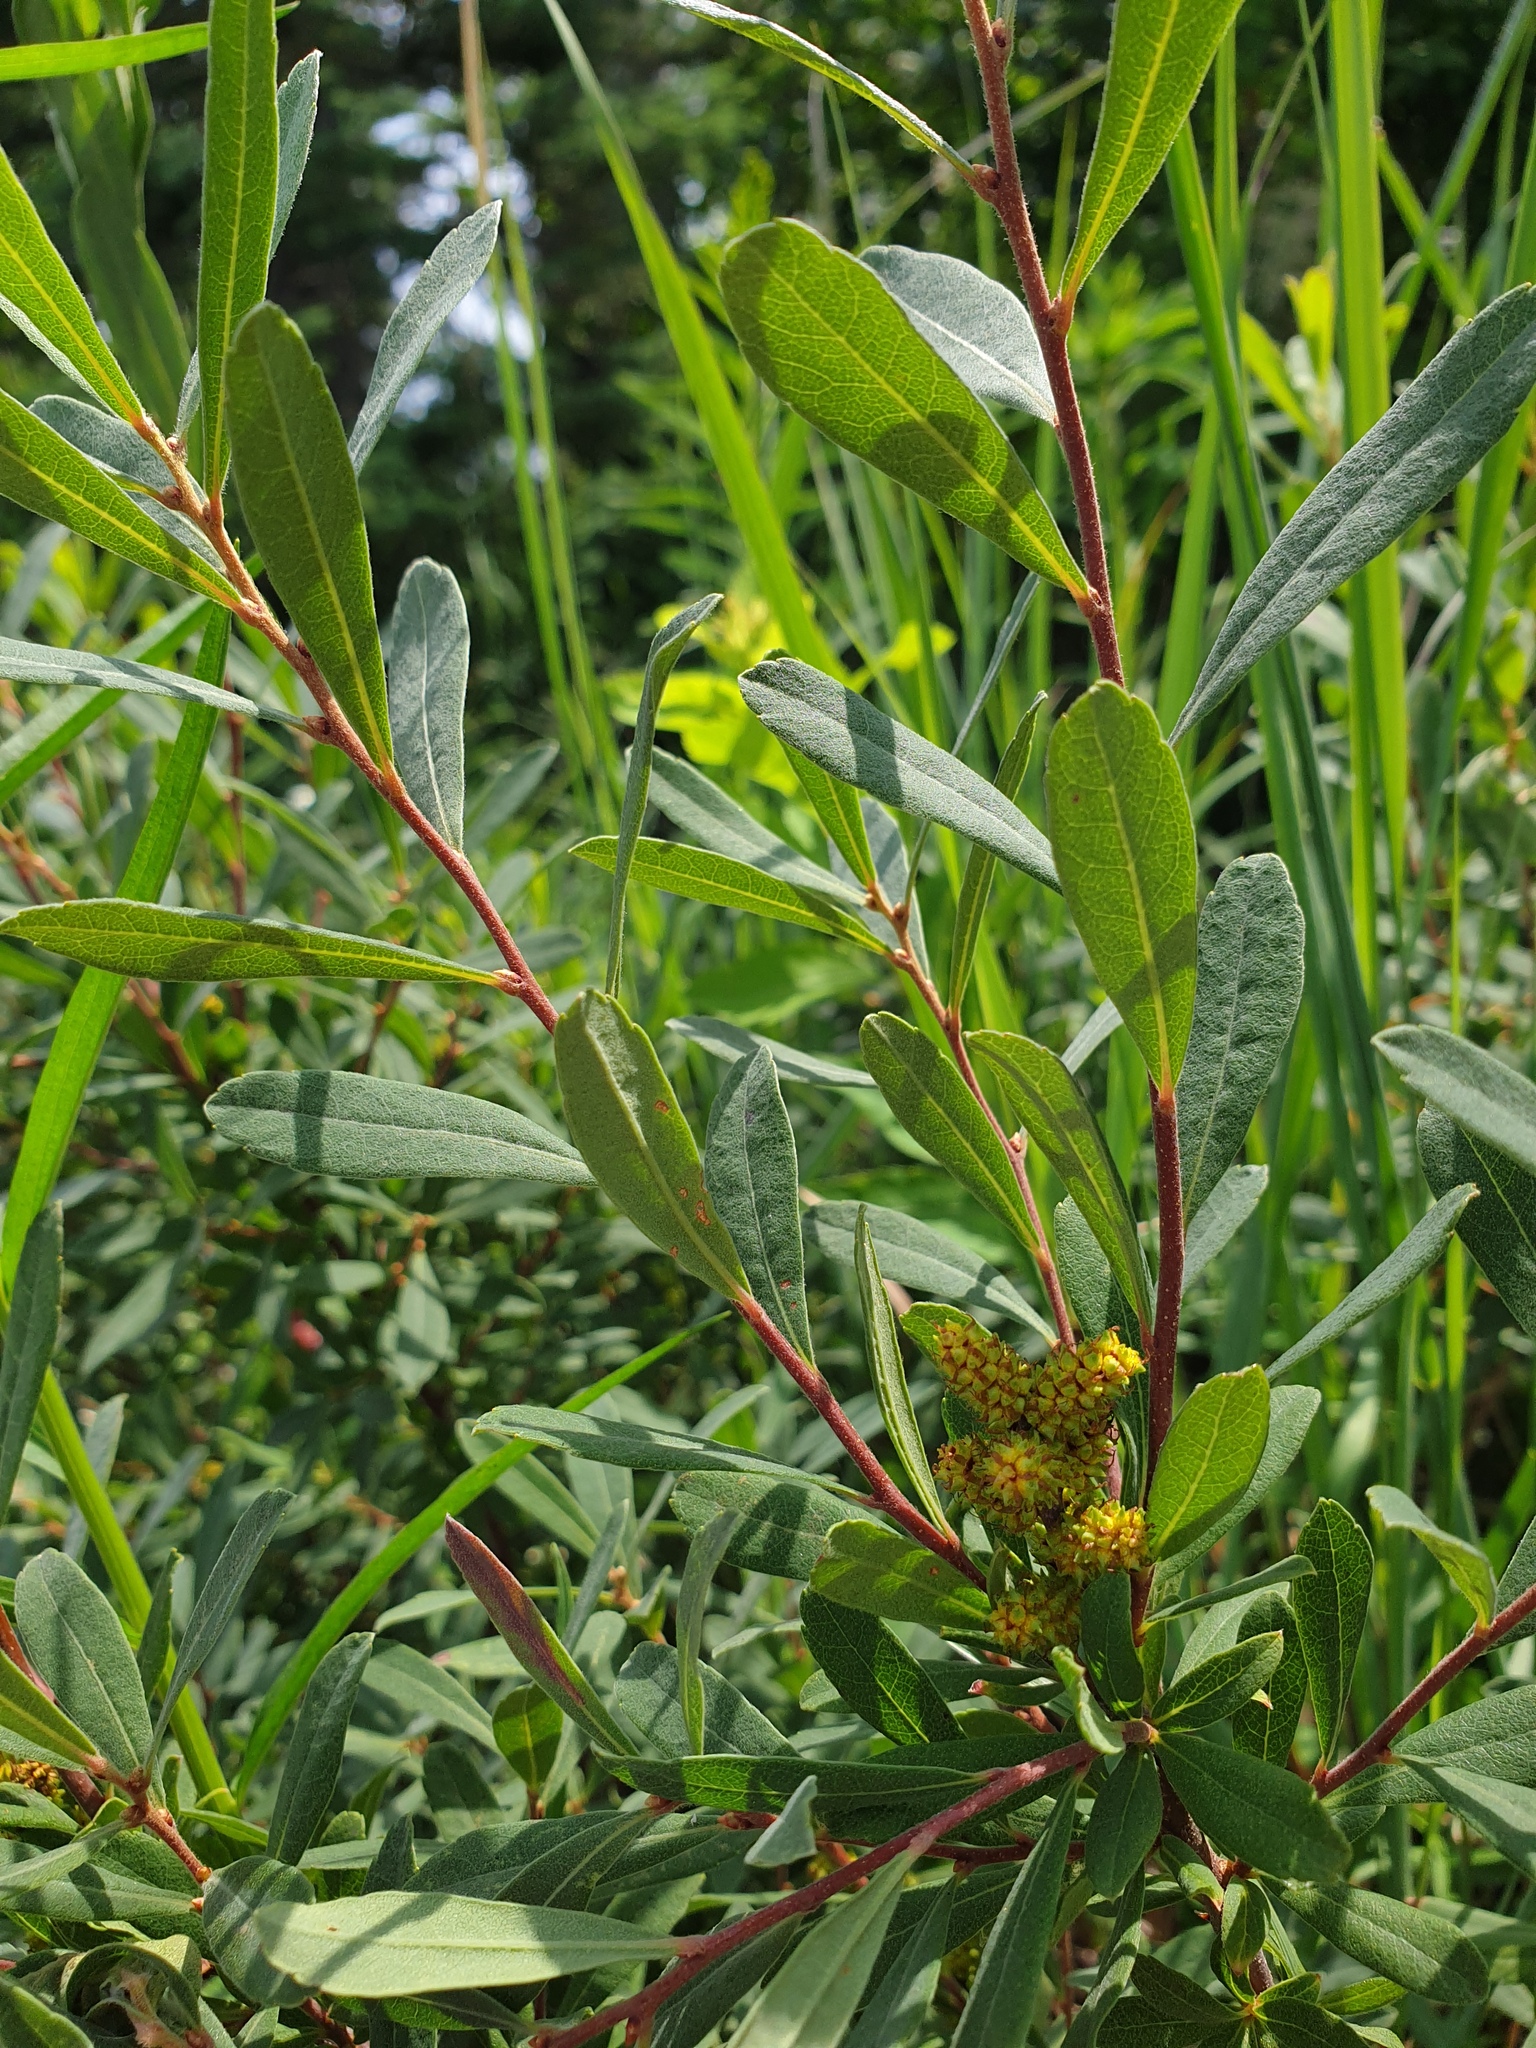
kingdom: Plantae
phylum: Tracheophyta
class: Magnoliopsida
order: Fagales
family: Myricaceae
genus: Myrica
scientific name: Myrica gale
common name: Sweet gale
